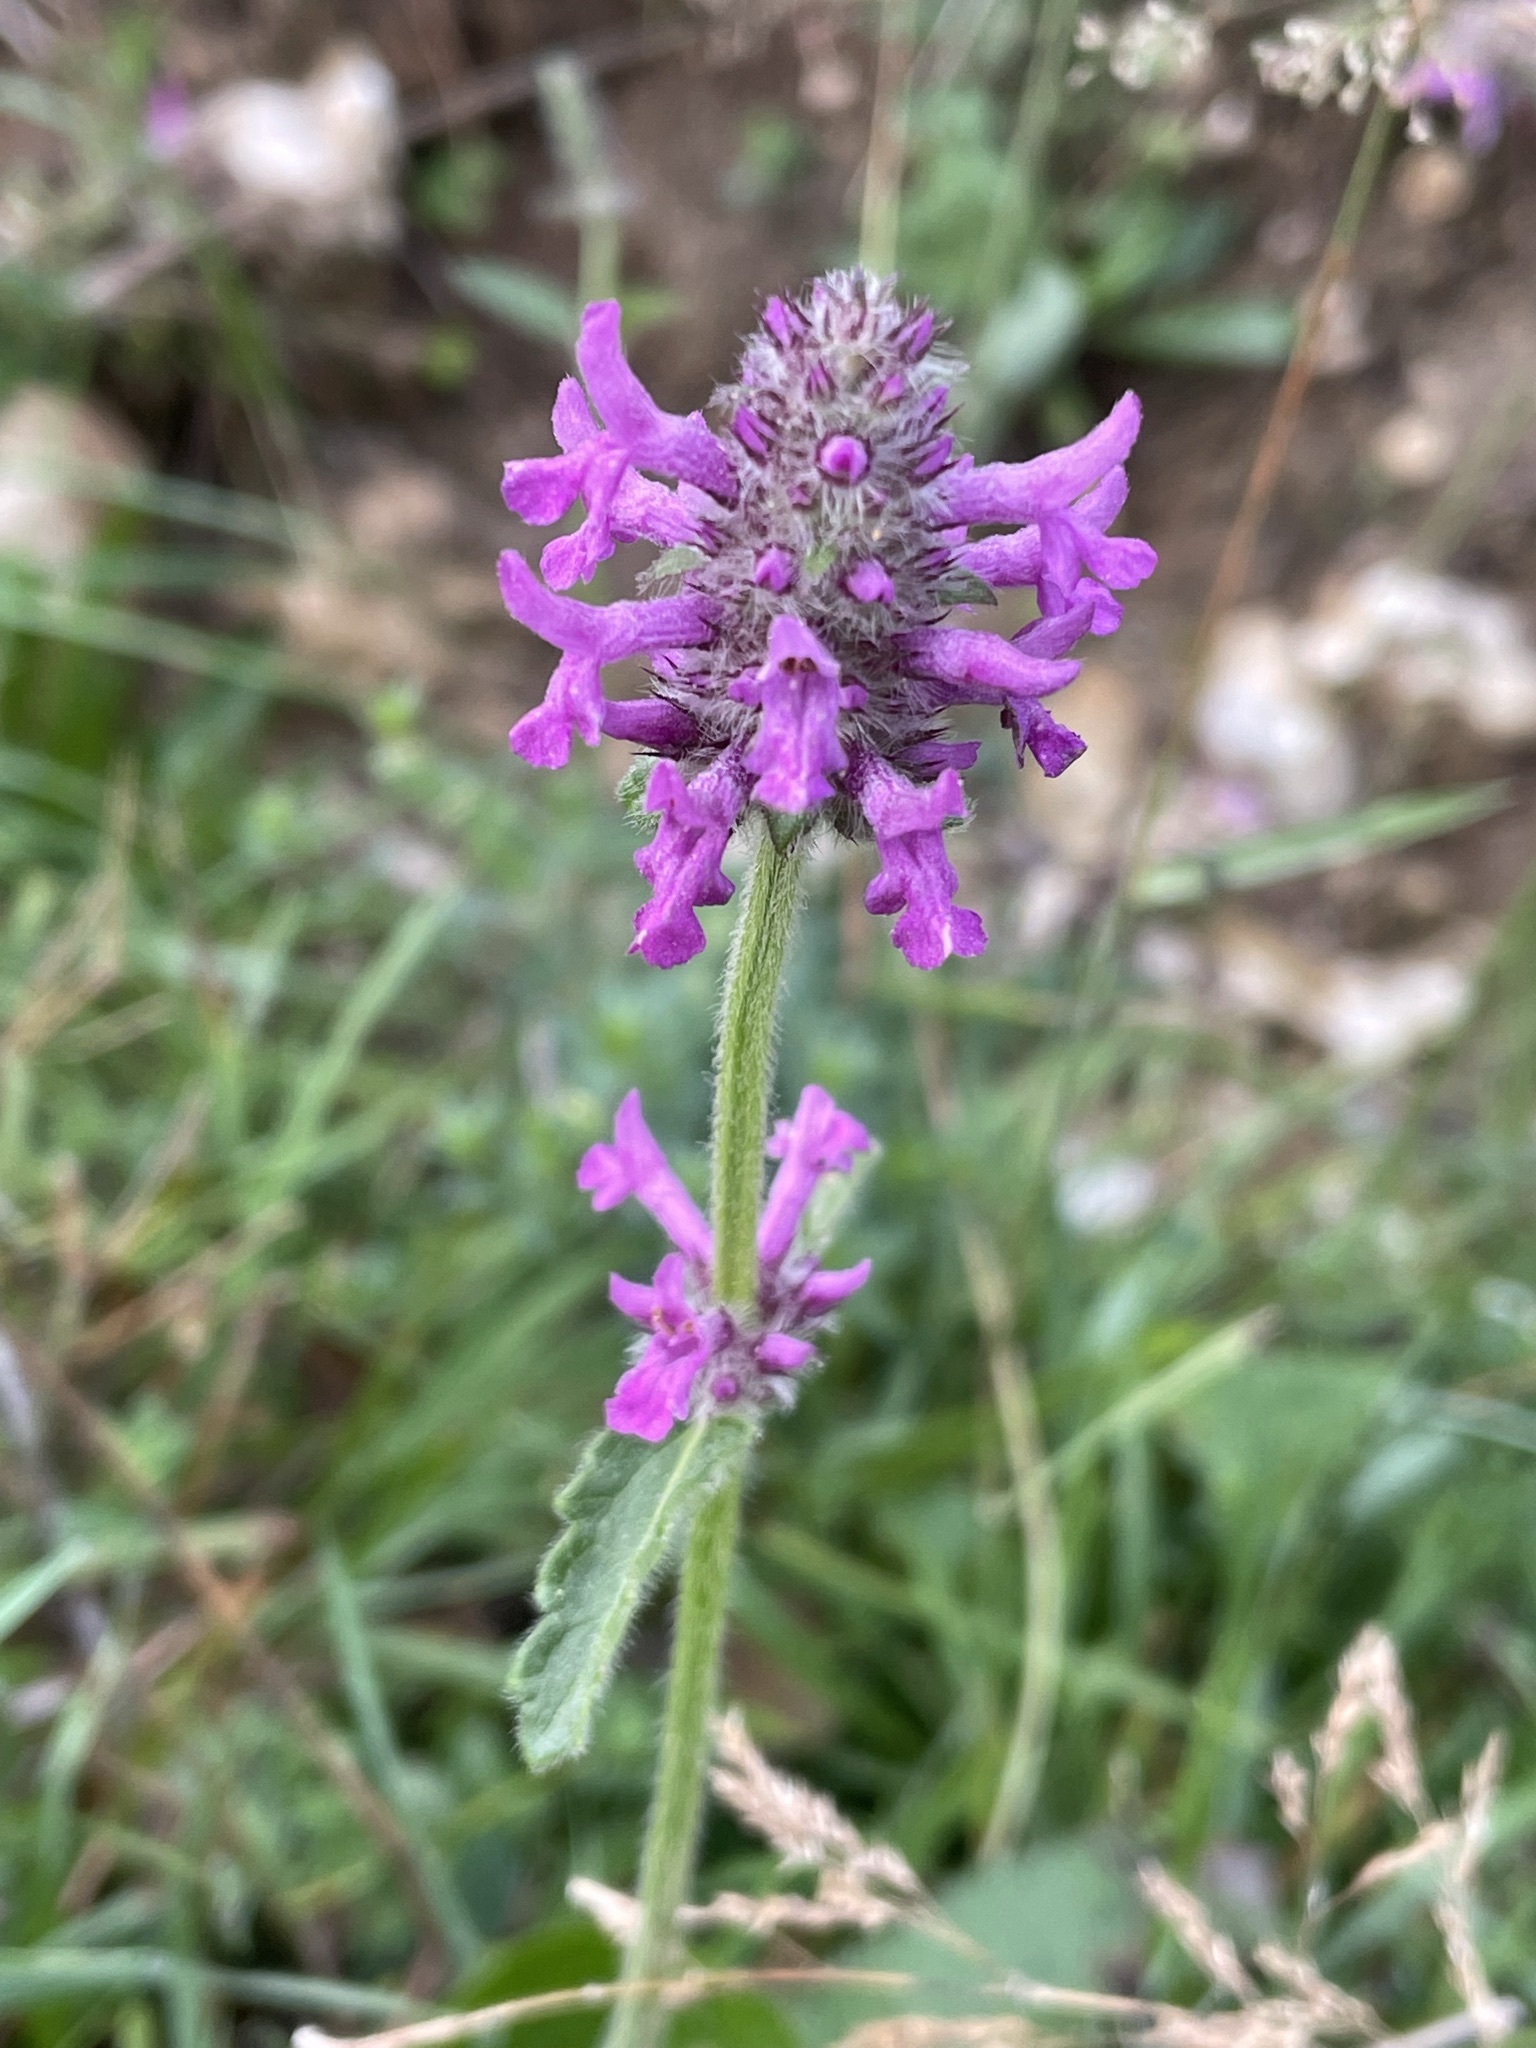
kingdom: Plantae
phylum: Tracheophyta
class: Magnoliopsida
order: Lamiales
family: Lamiaceae
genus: Betonica
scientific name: Betonica officinalis
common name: Bishop's-wort
